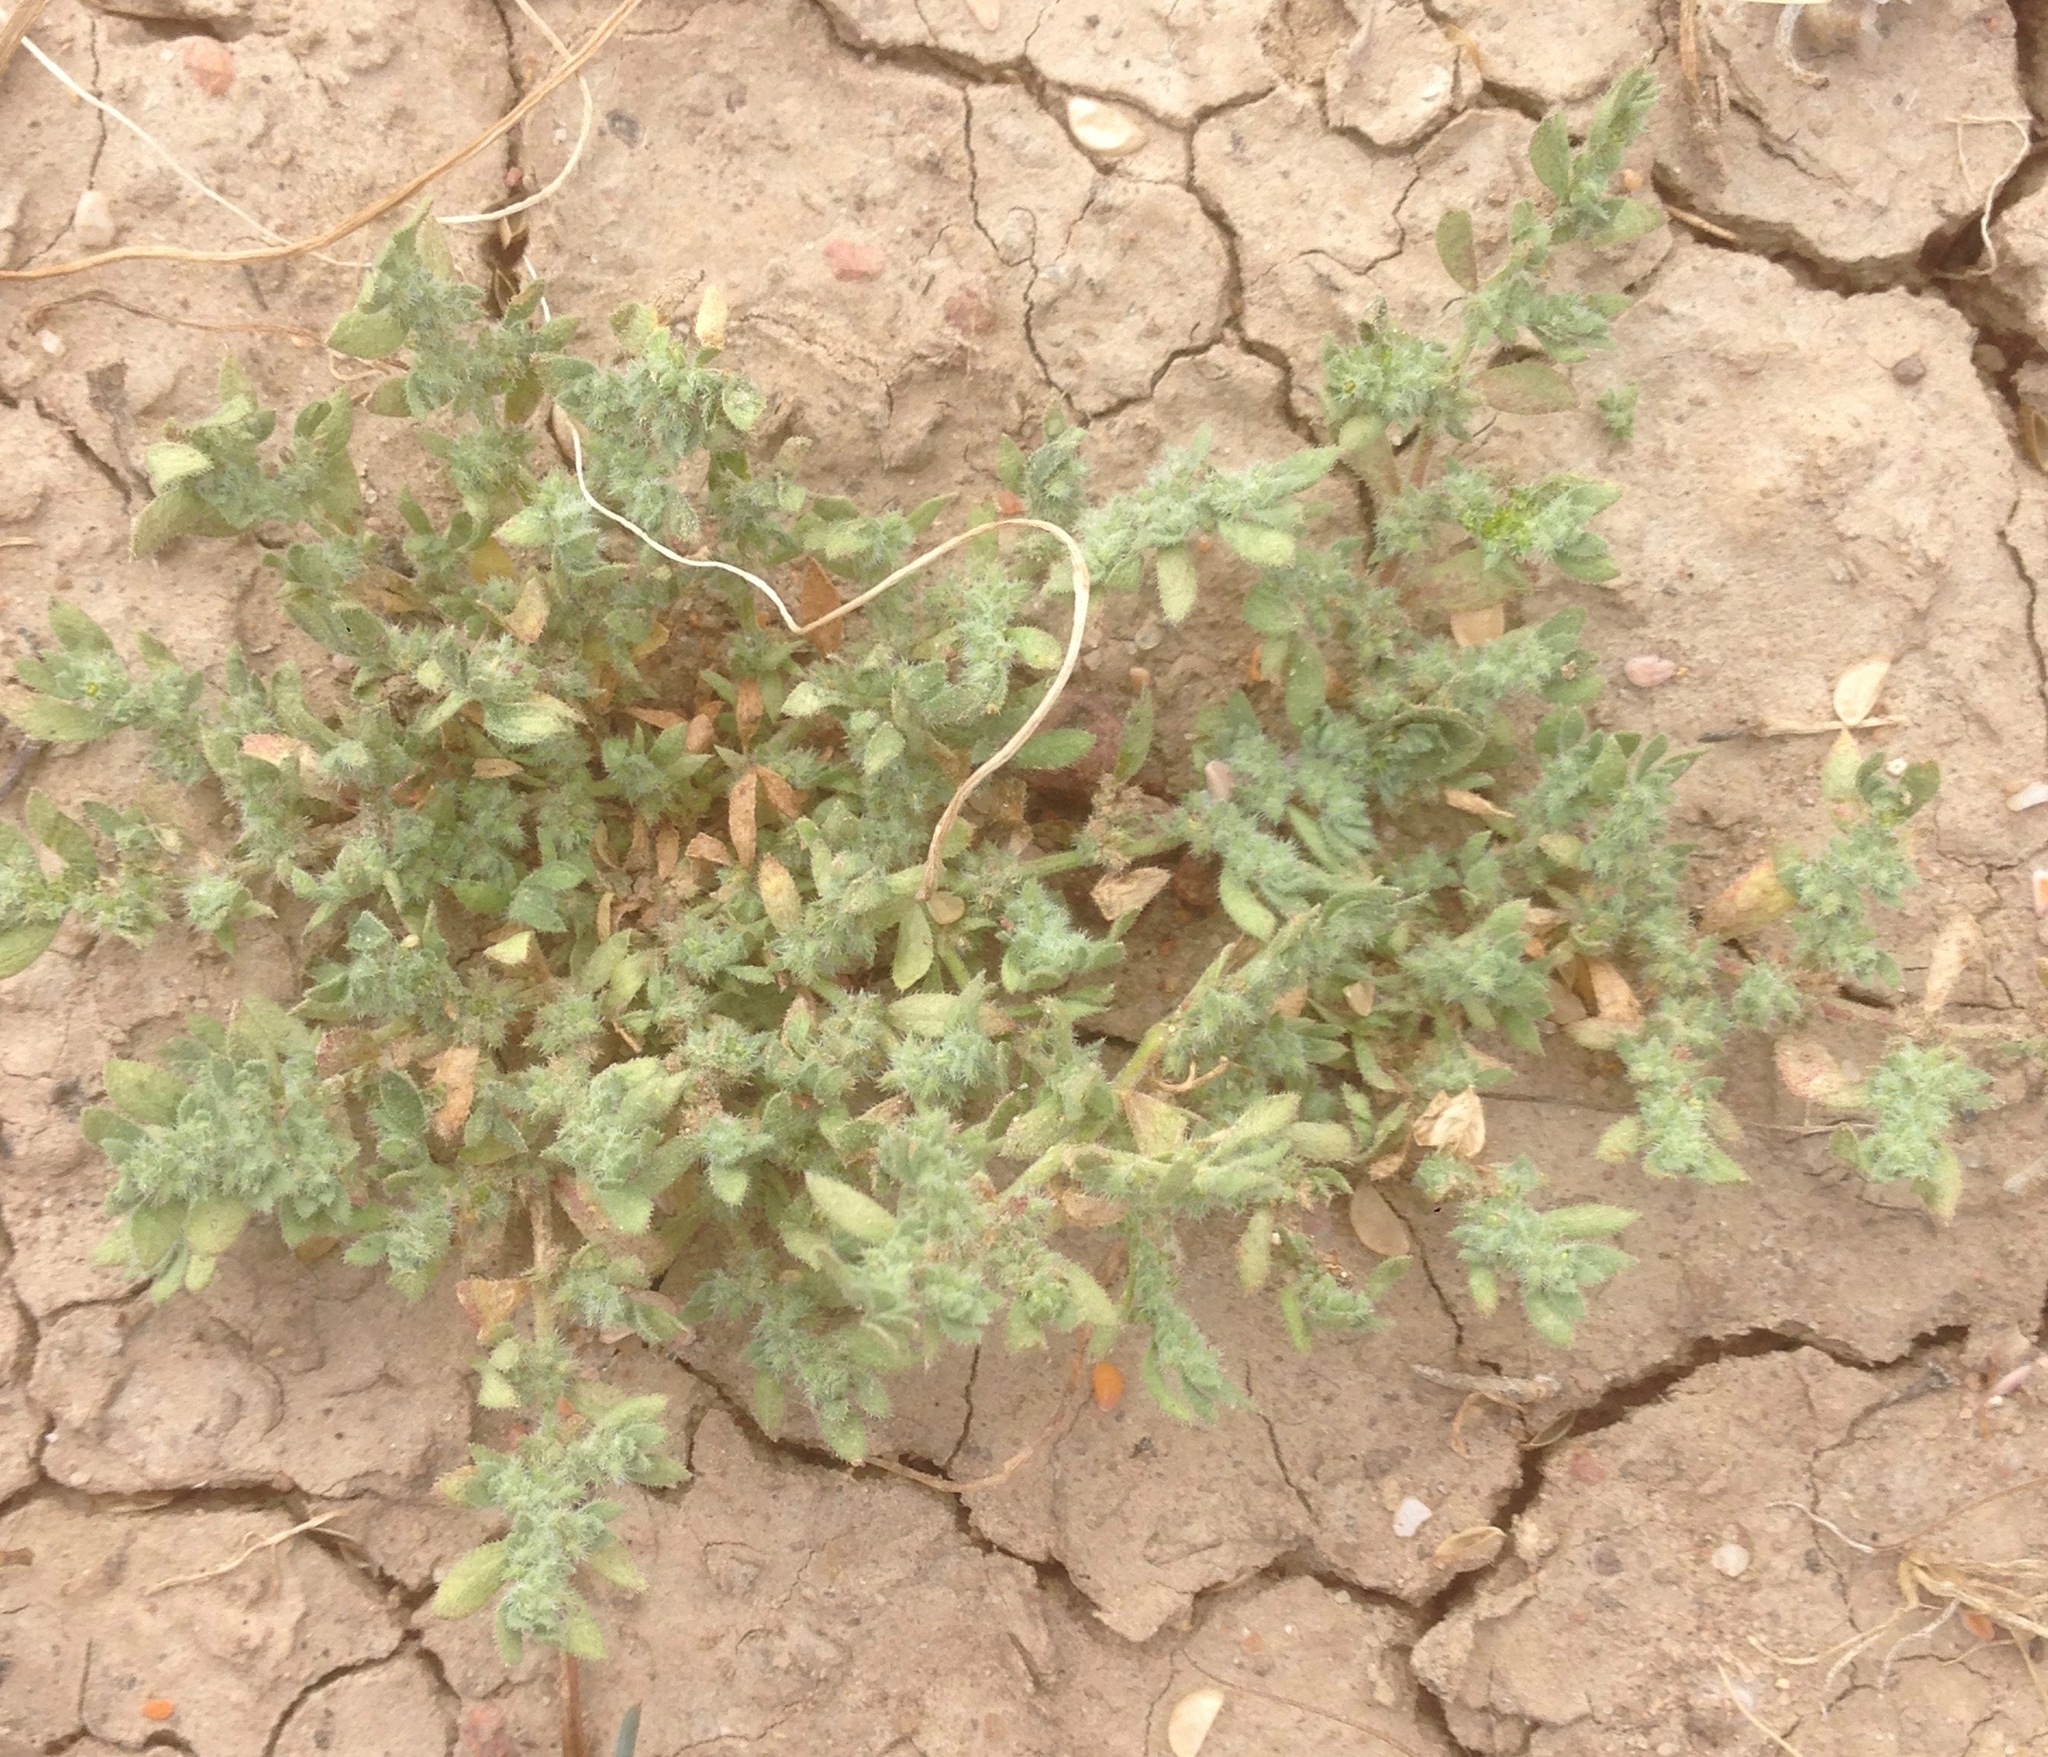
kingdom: Plantae
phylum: Tracheophyta
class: Magnoliopsida
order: Caryophyllales
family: Caryophyllaceae
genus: Herniaria
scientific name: Herniaria hirsuta
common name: Hairy rupturewort
